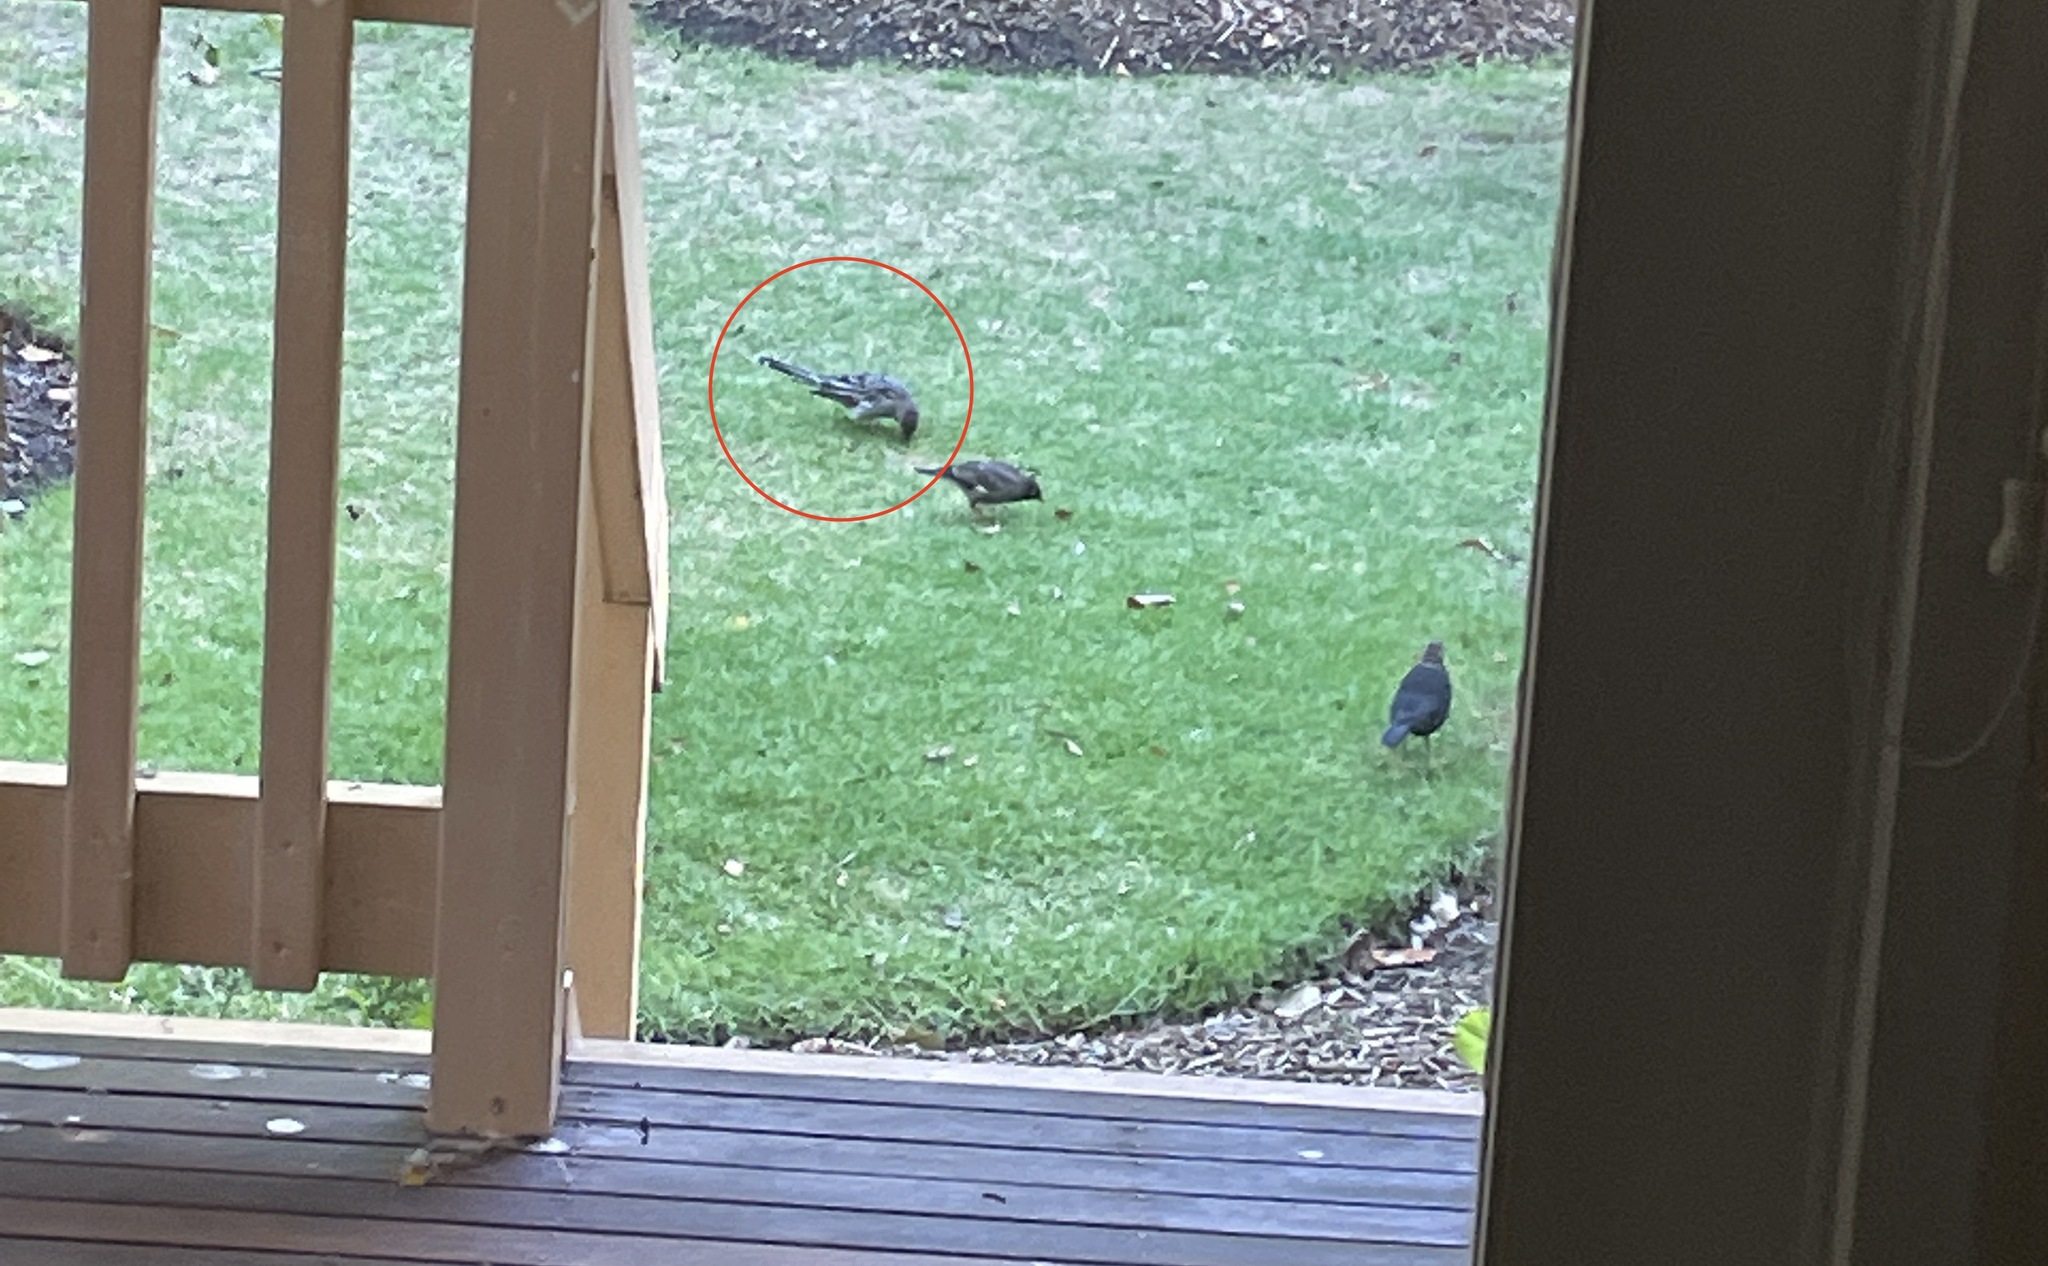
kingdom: Animalia
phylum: Chordata
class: Aves
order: Passeriformes
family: Meliphagidae
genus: Anthochaera
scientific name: Anthochaera carunculata
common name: Red wattlebird
